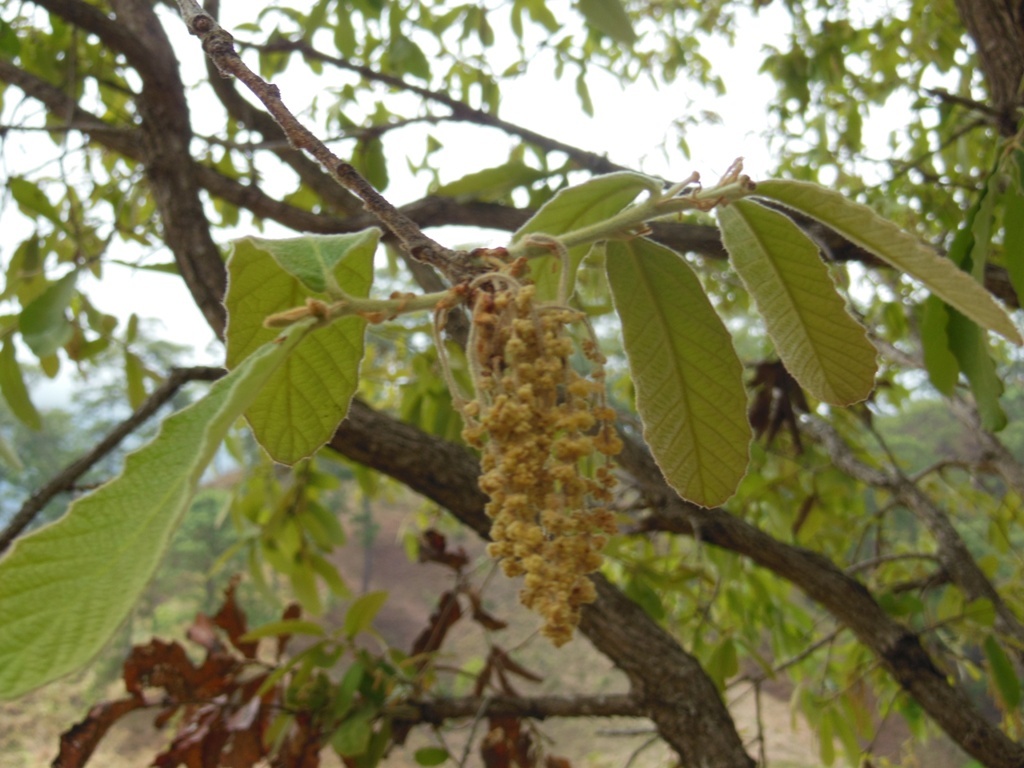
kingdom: Plantae
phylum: Tracheophyta
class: Magnoliopsida
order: Fagales
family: Fagaceae
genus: Quercus
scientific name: Quercus peduncularis
